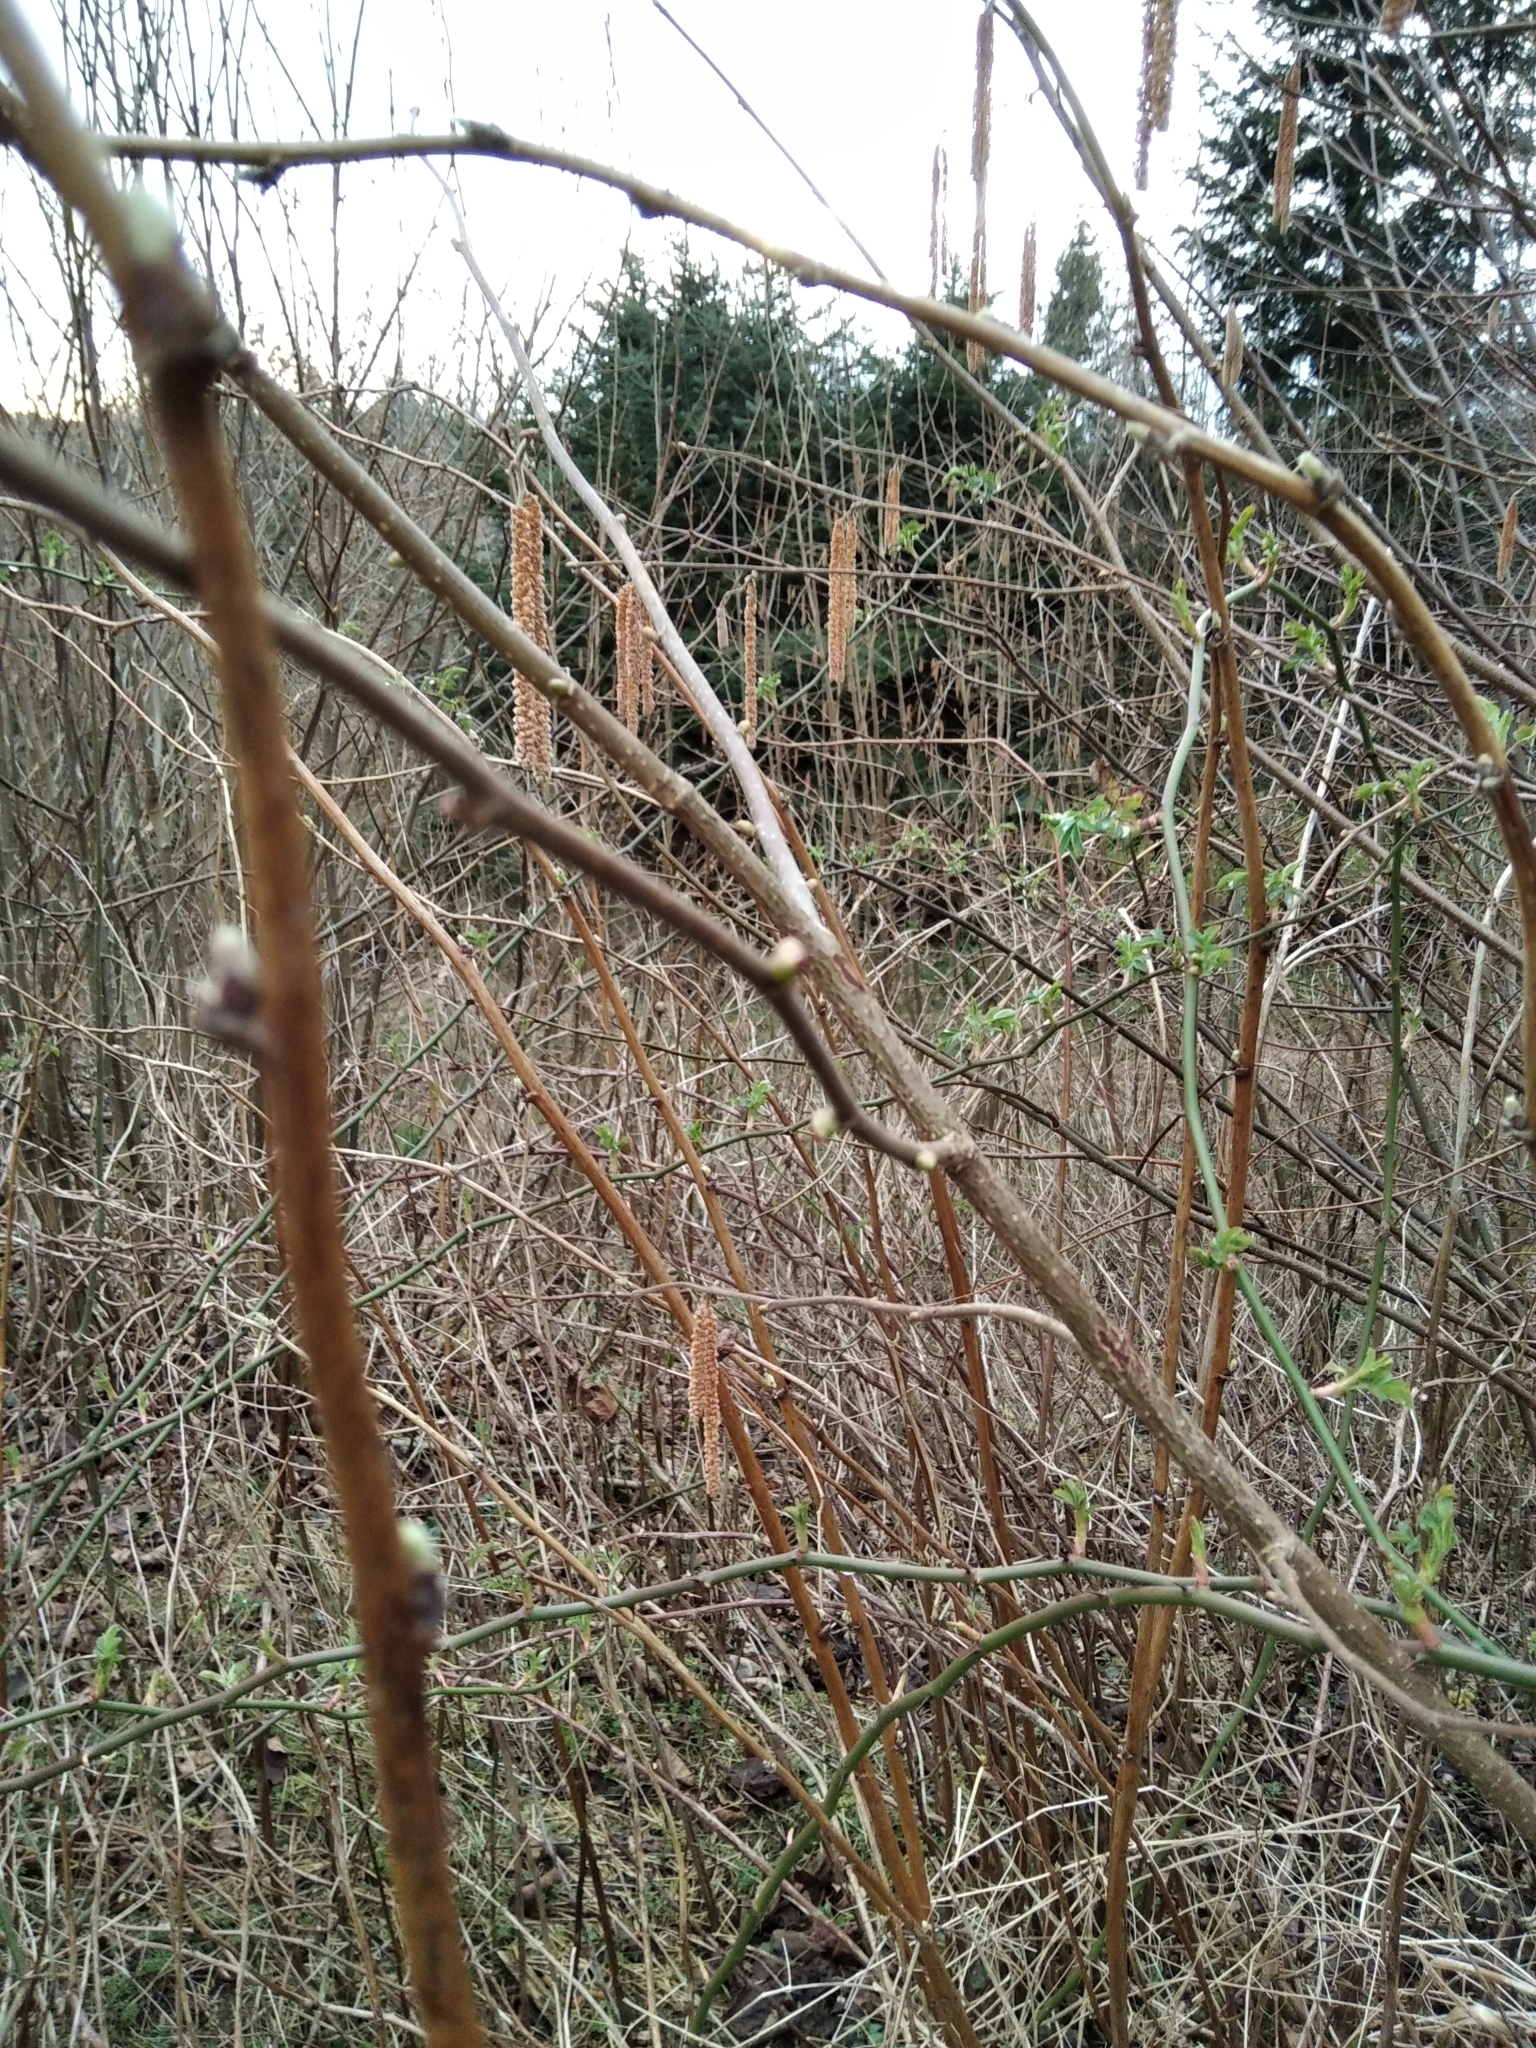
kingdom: Plantae
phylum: Tracheophyta
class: Magnoliopsida
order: Fagales
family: Betulaceae
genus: Corylus
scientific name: Corylus avellana
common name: European hazel
